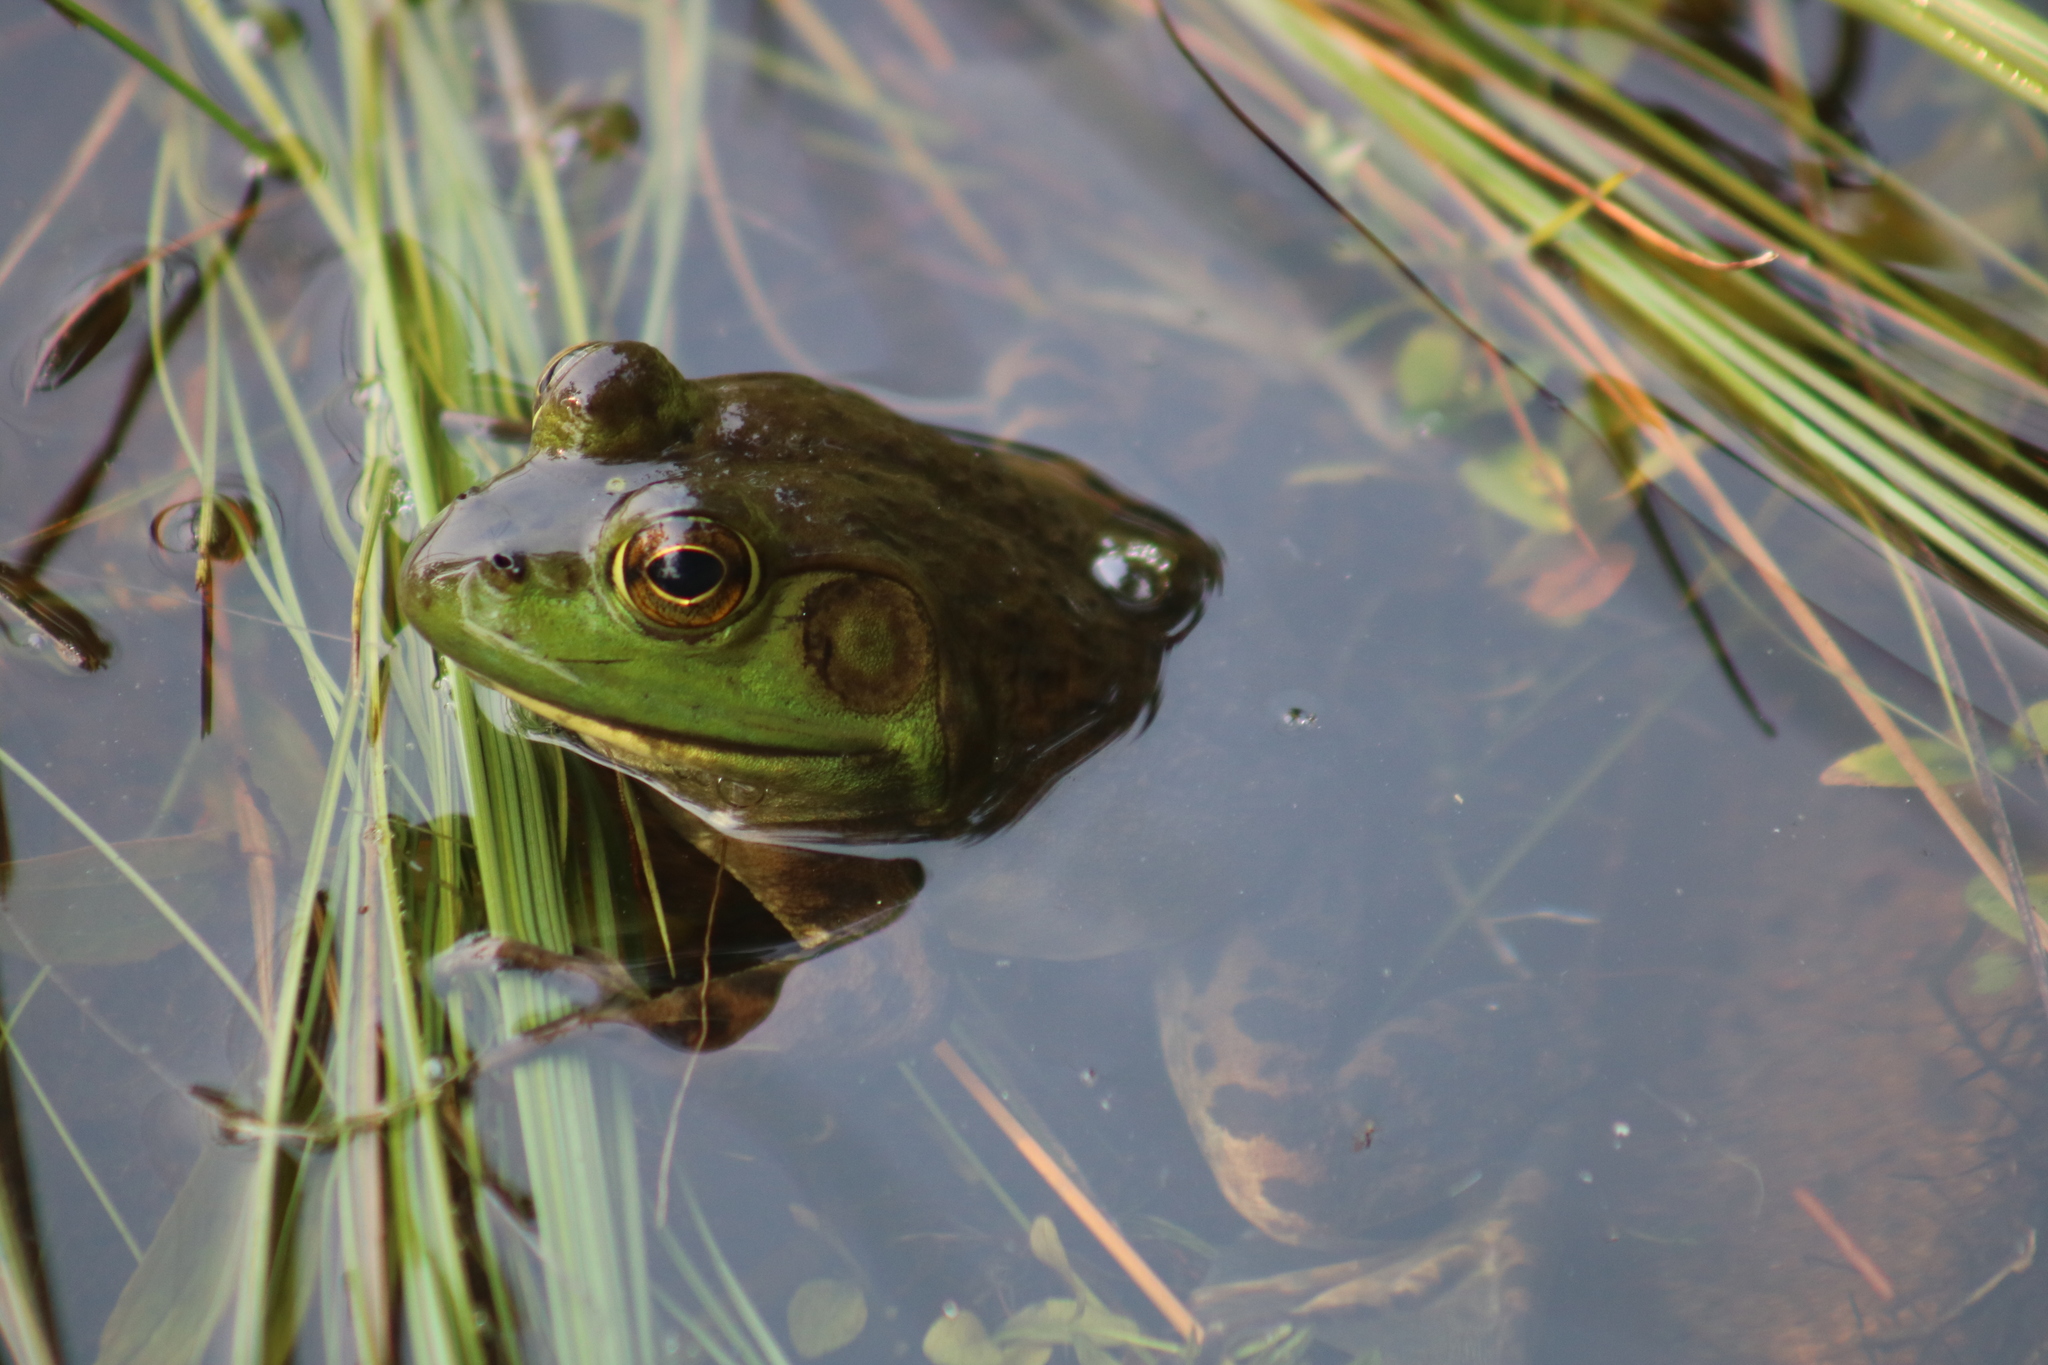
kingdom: Animalia
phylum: Chordata
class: Amphibia
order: Anura
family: Ranidae
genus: Lithobates
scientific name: Lithobates catesbeianus
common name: American bullfrog
